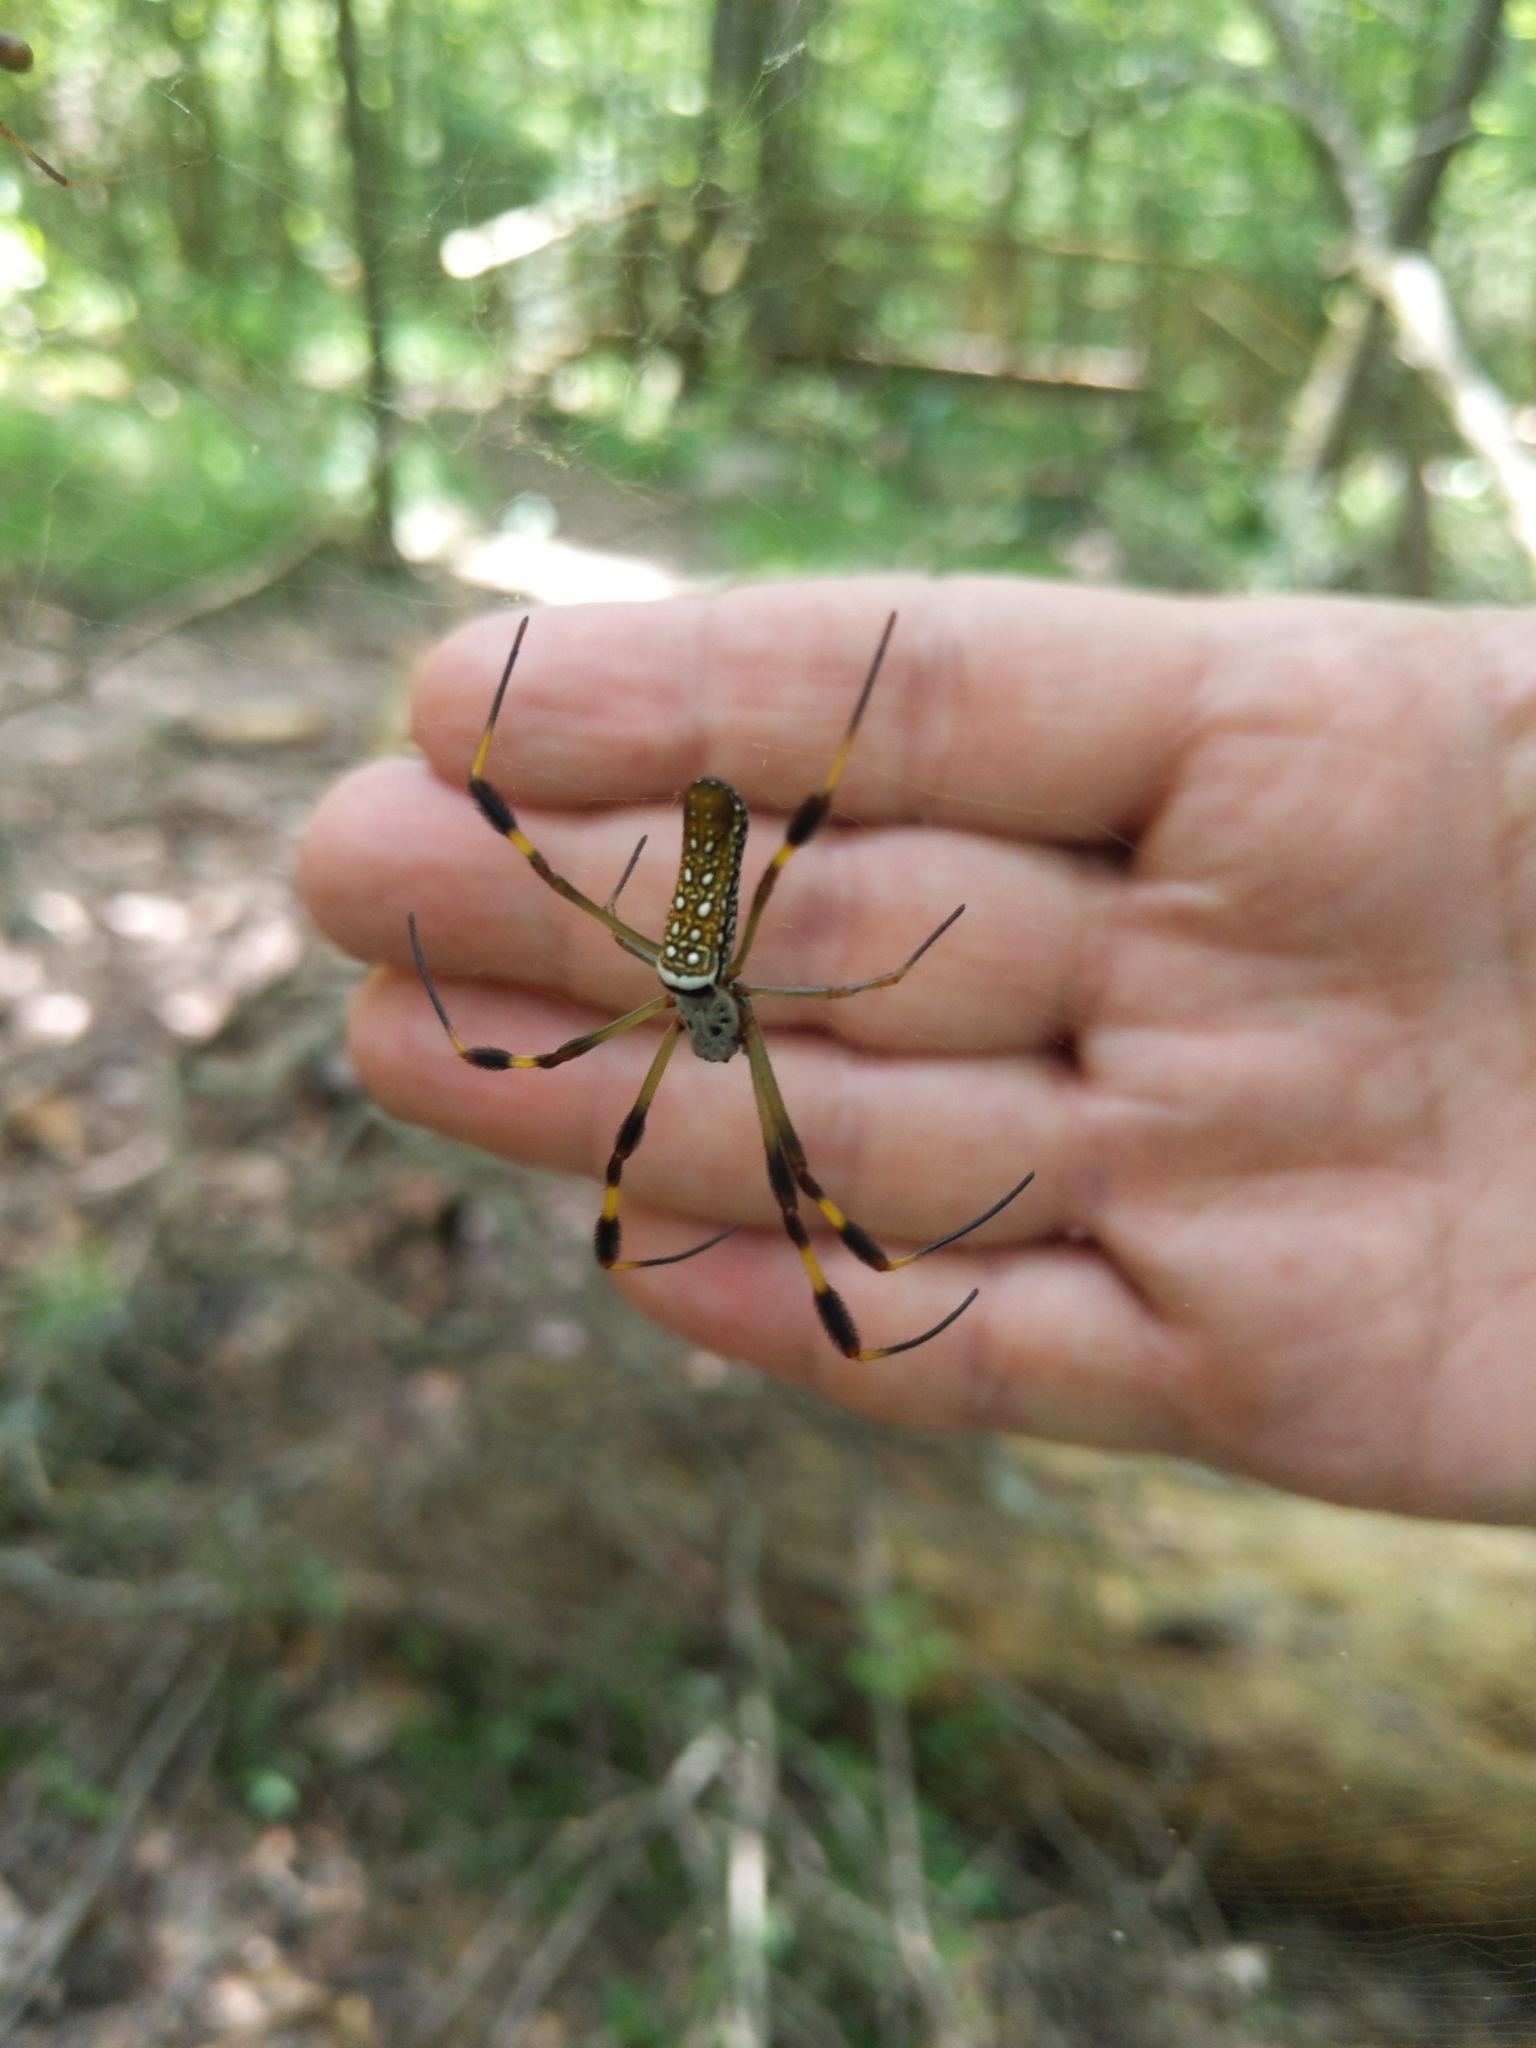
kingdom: Animalia
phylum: Arthropoda
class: Arachnida
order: Araneae
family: Araneidae
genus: Trichonephila
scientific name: Trichonephila clavipes
